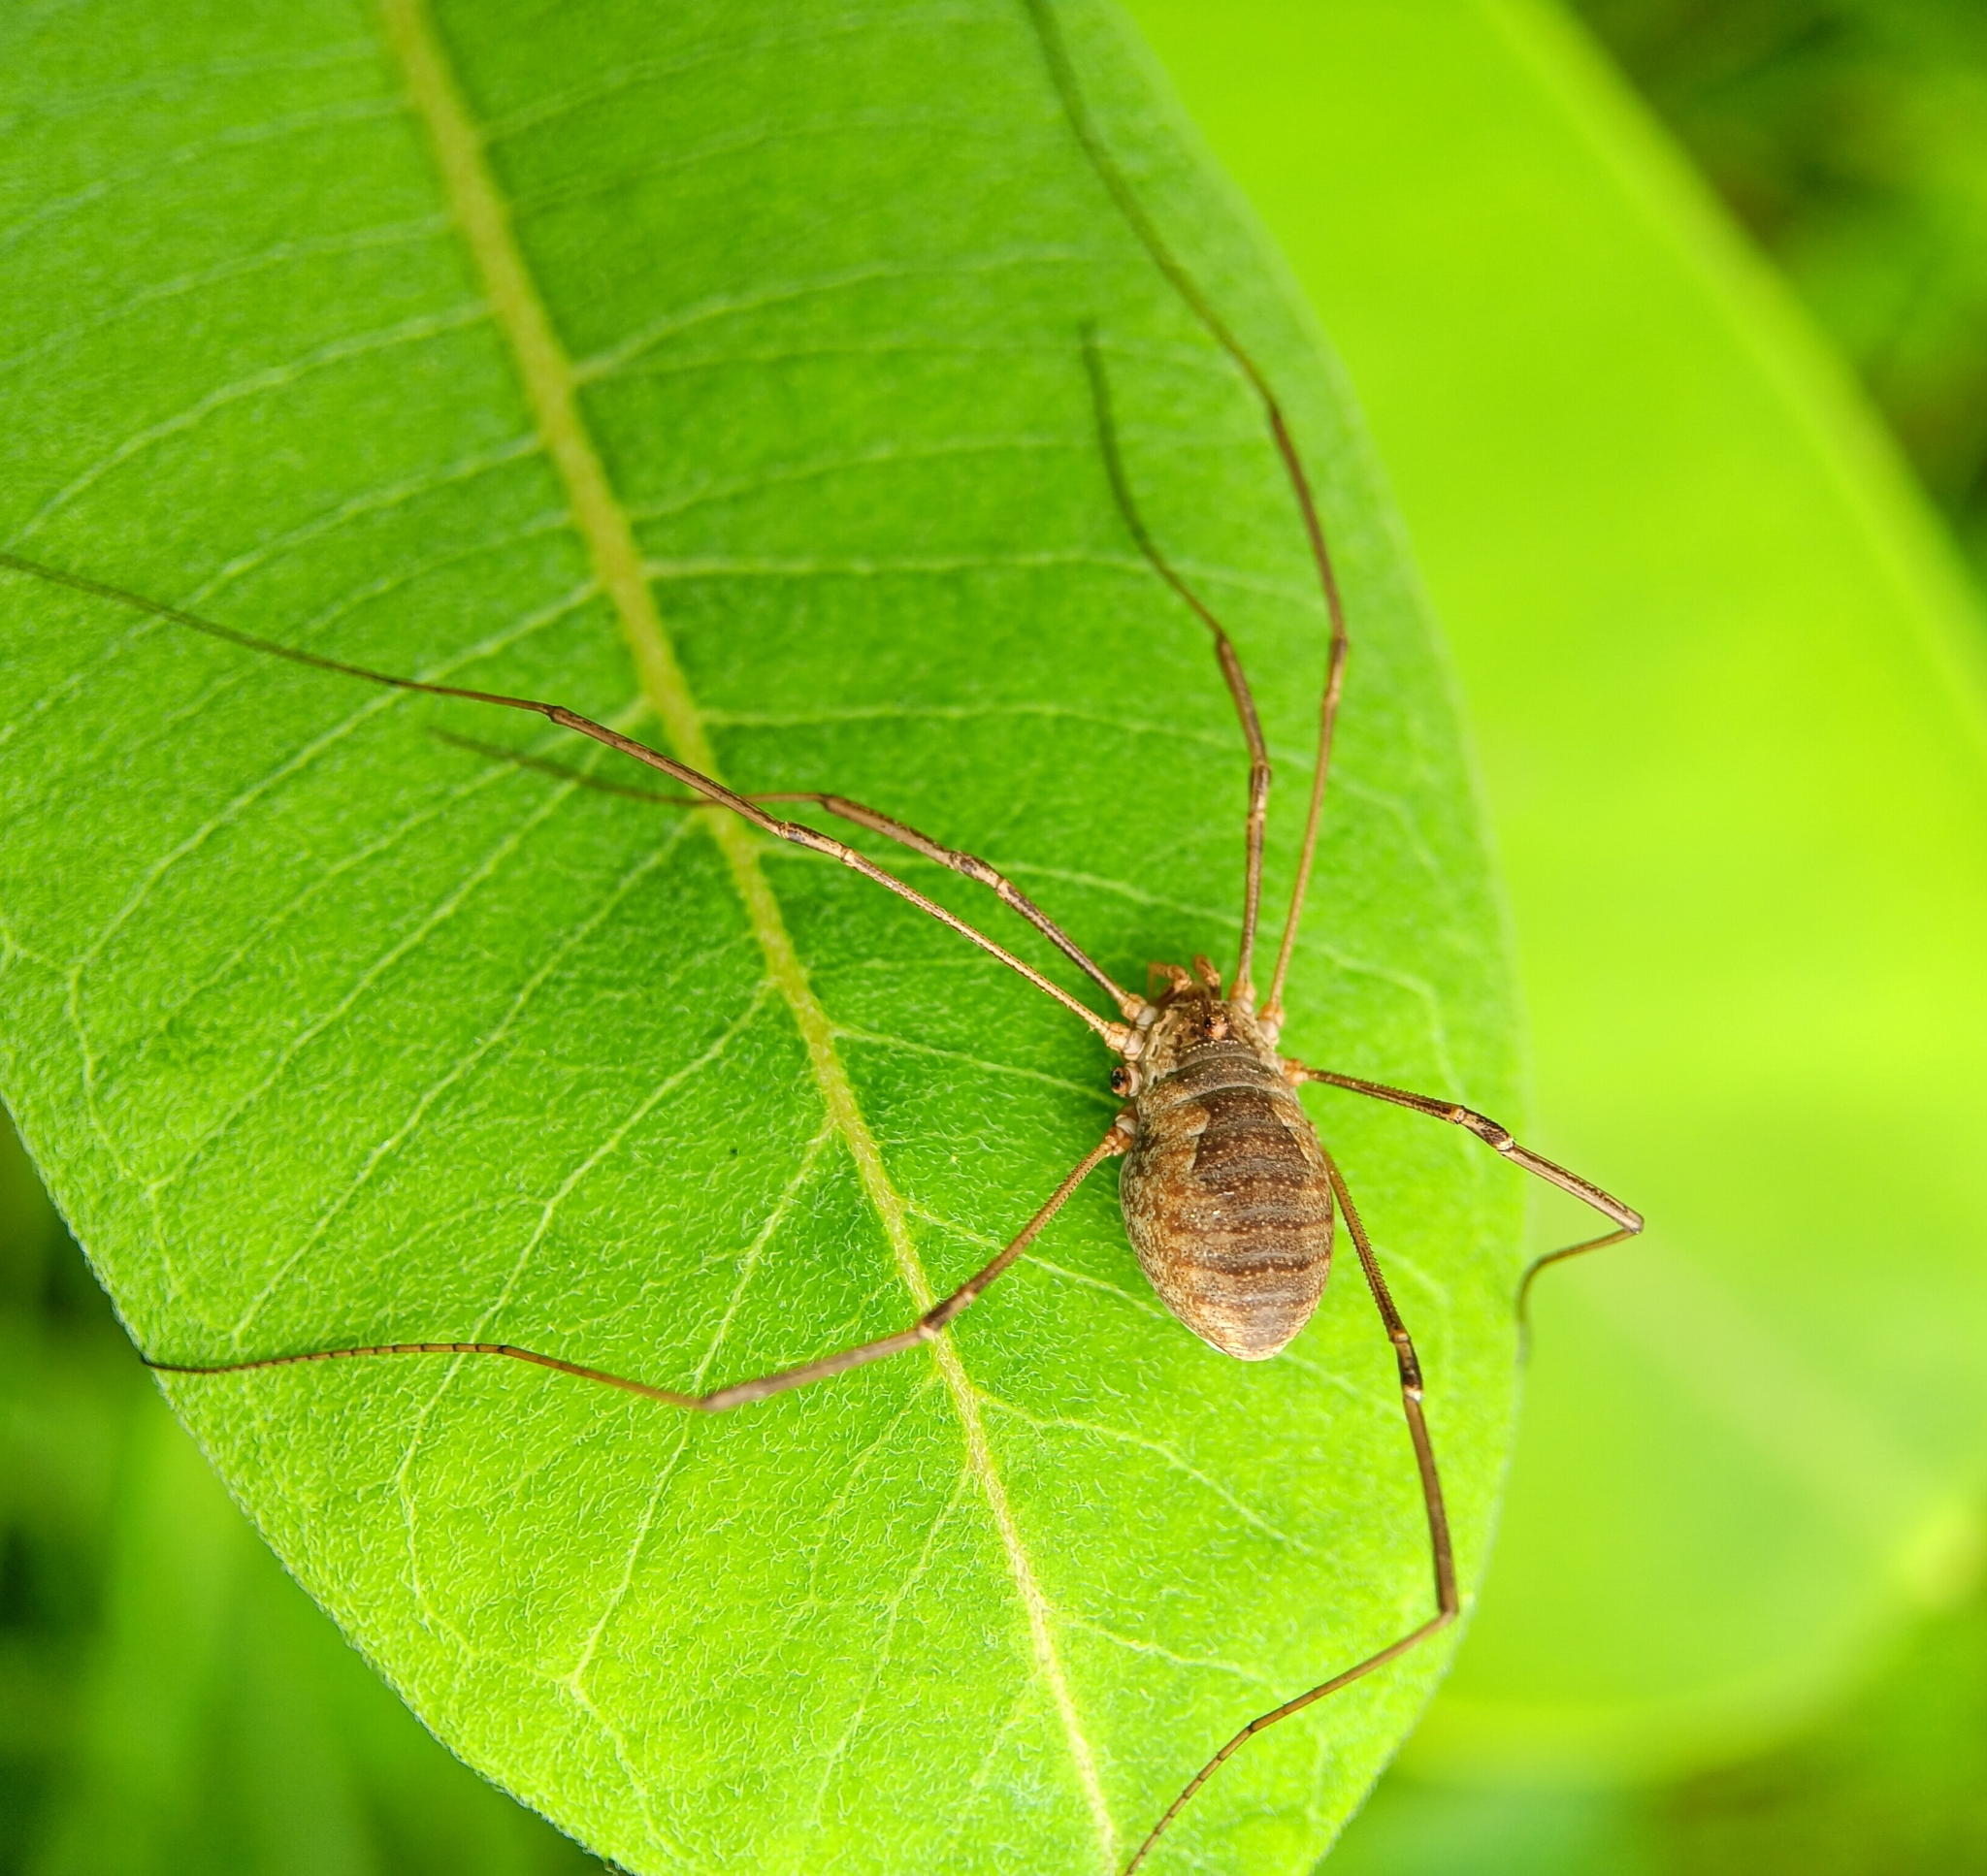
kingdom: Animalia
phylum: Arthropoda
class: Arachnida
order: Opiliones
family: Phalangiidae
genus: Phalangium
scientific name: Phalangium opilio
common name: Daddy longleg
